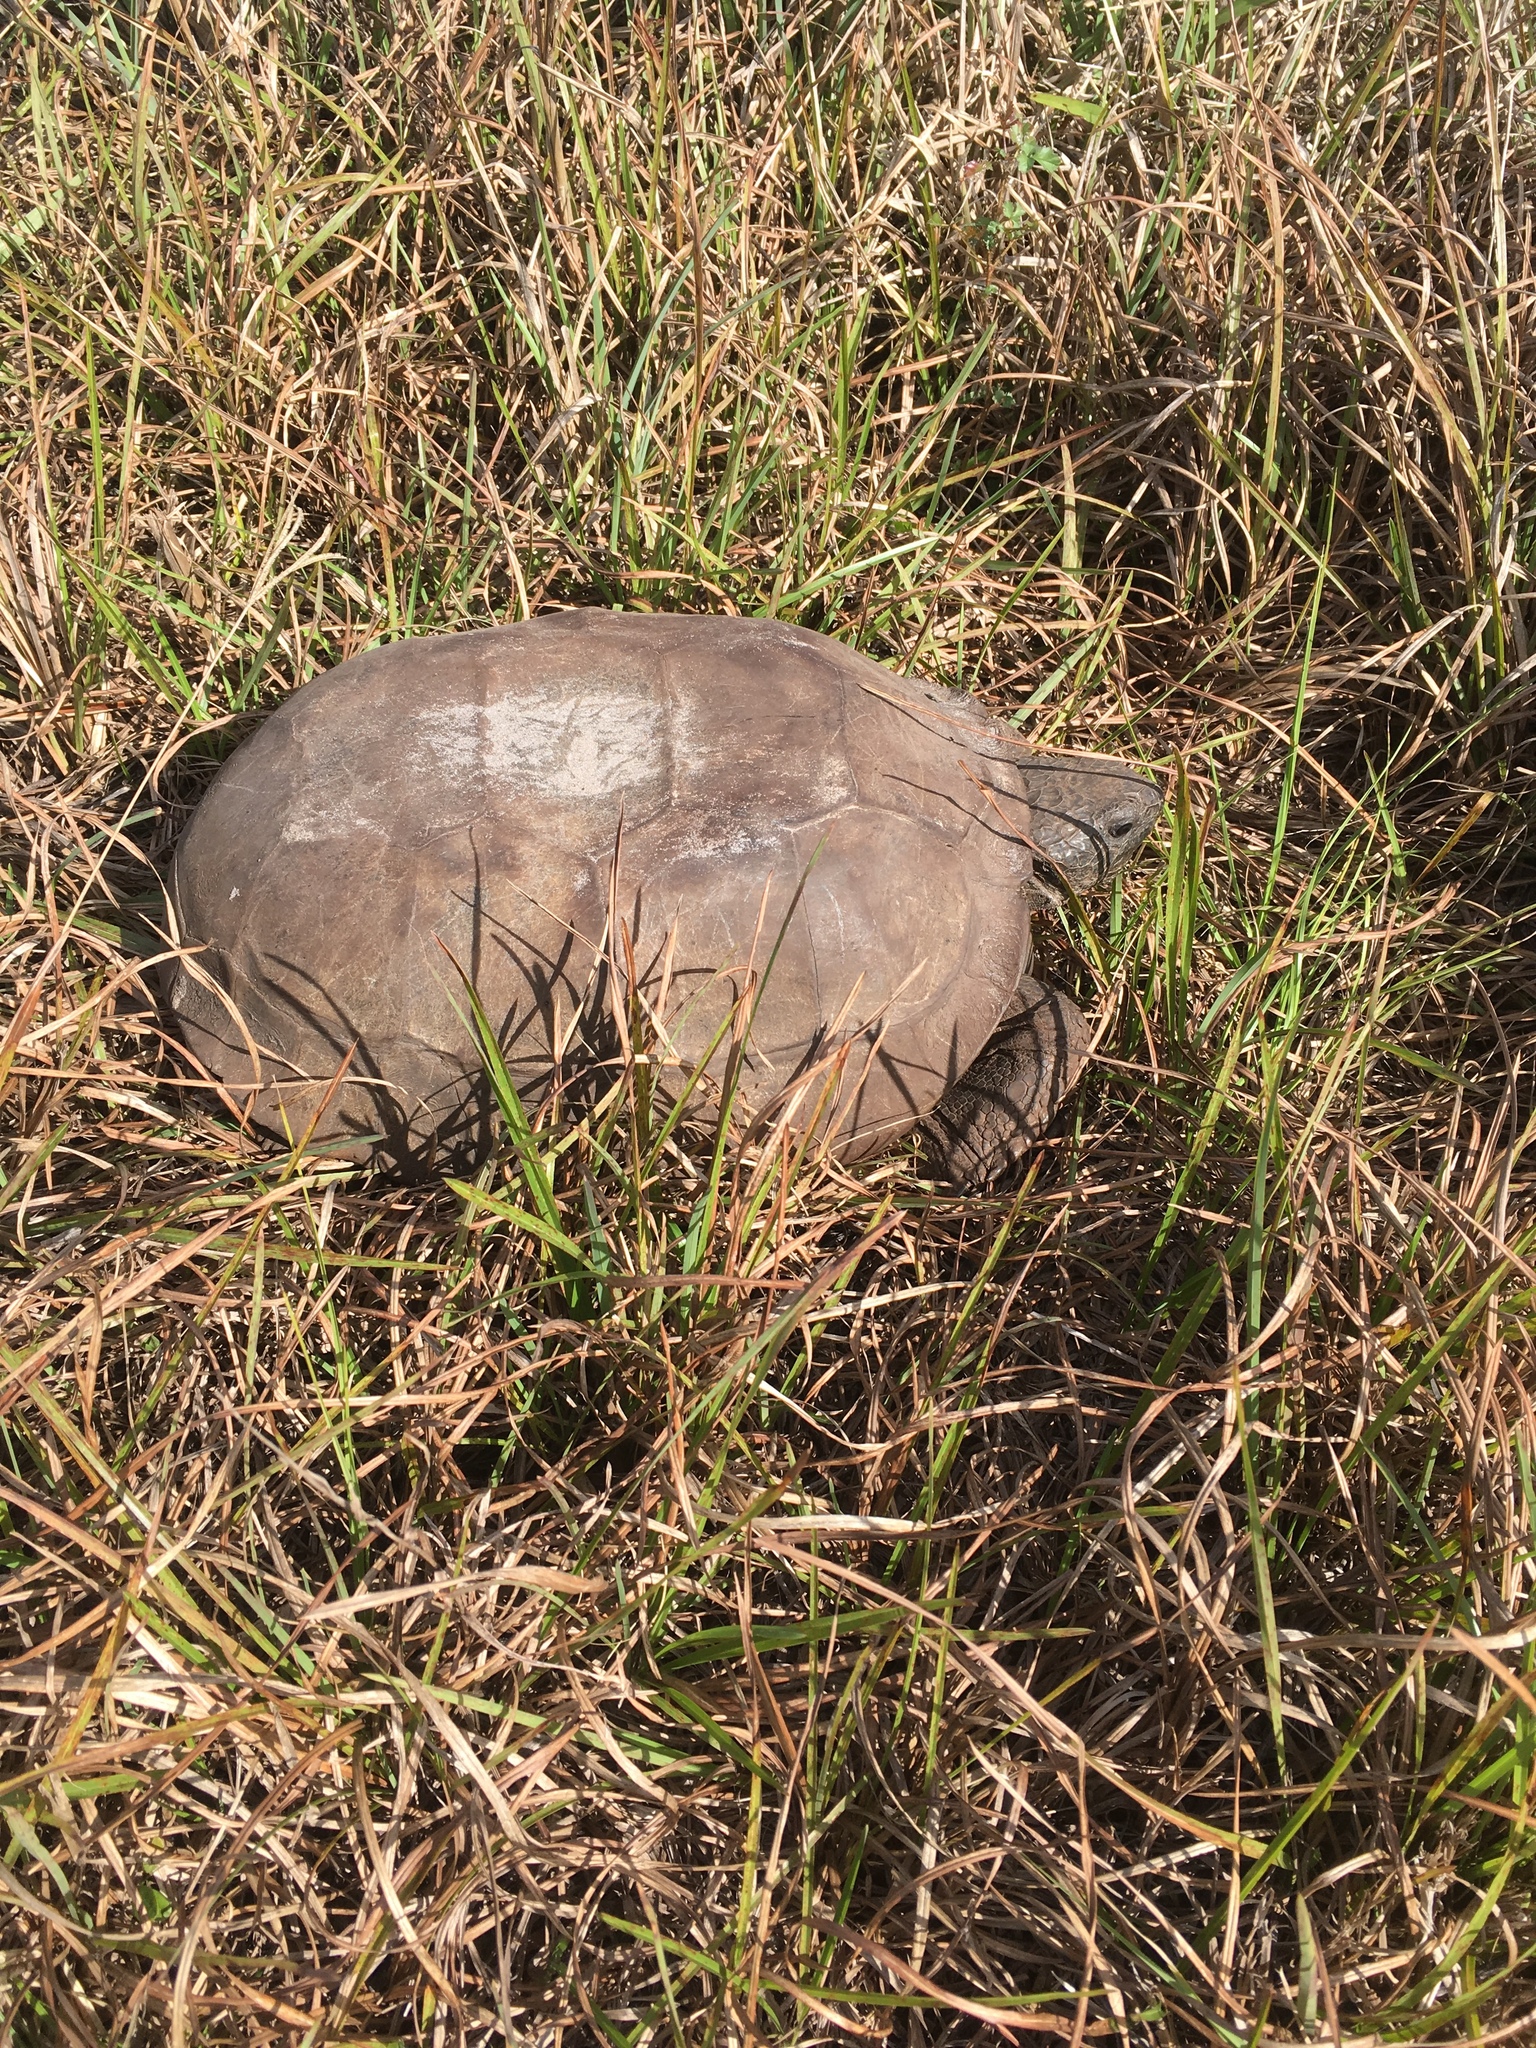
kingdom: Animalia
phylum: Chordata
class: Testudines
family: Testudinidae
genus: Gopherus
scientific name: Gopherus polyphemus
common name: Florida gopher tortoise
